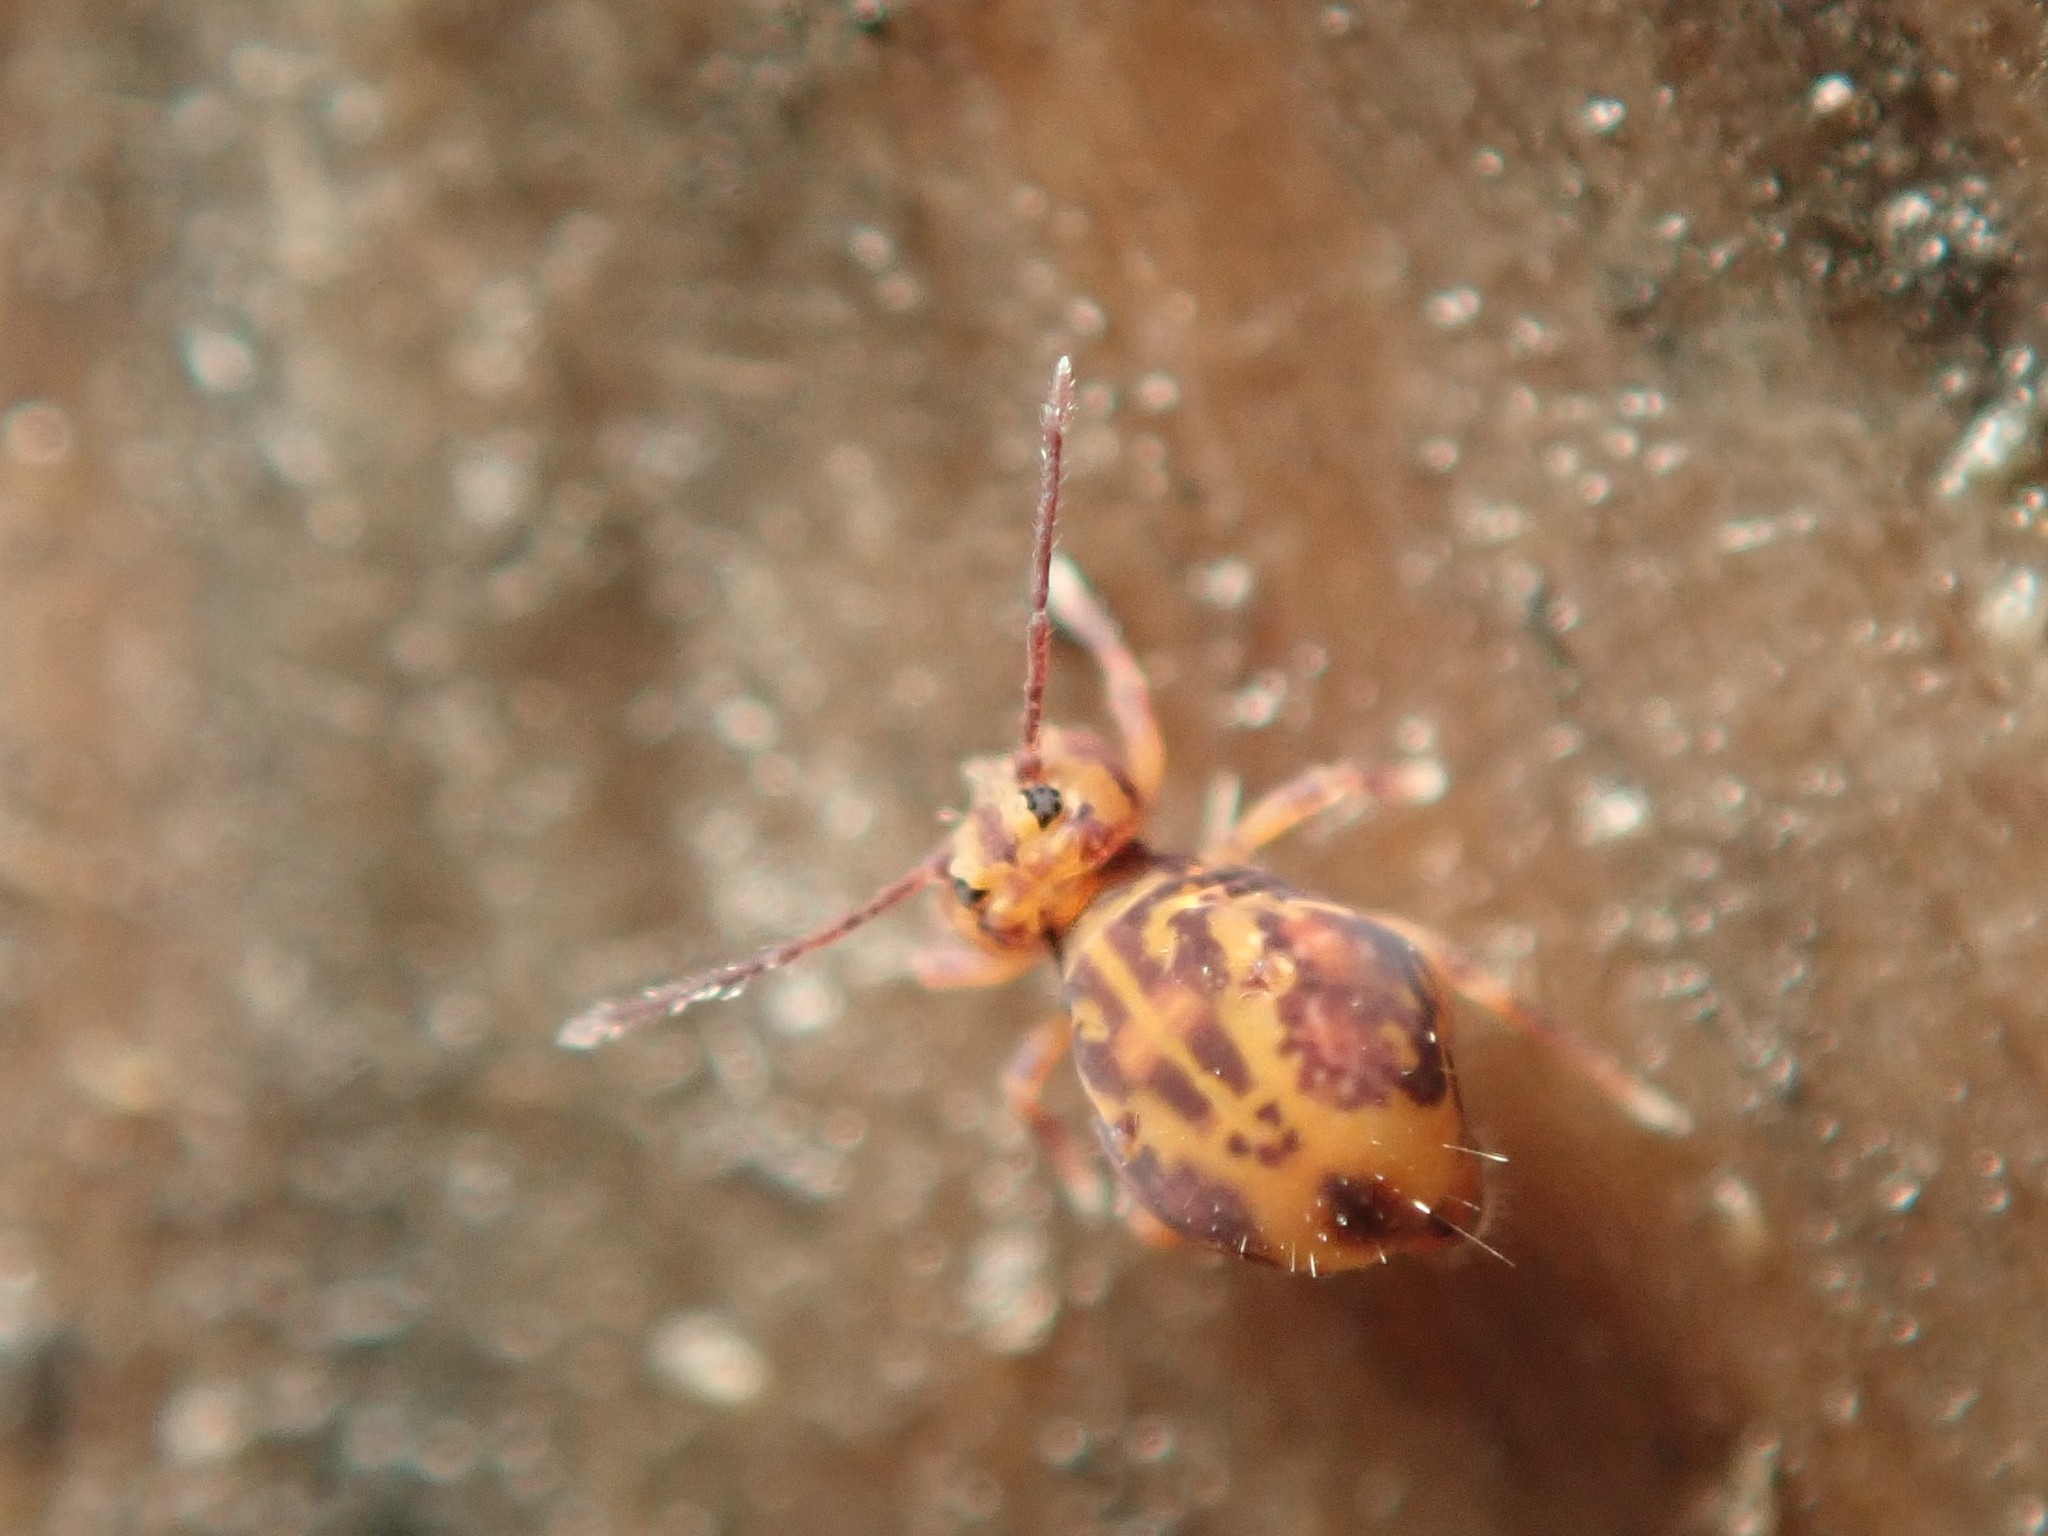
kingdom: Animalia
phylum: Arthropoda
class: Collembola
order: Symphypleona
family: Dicyrtomidae
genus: Dicyrtomina
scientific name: Dicyrtomina ornata
